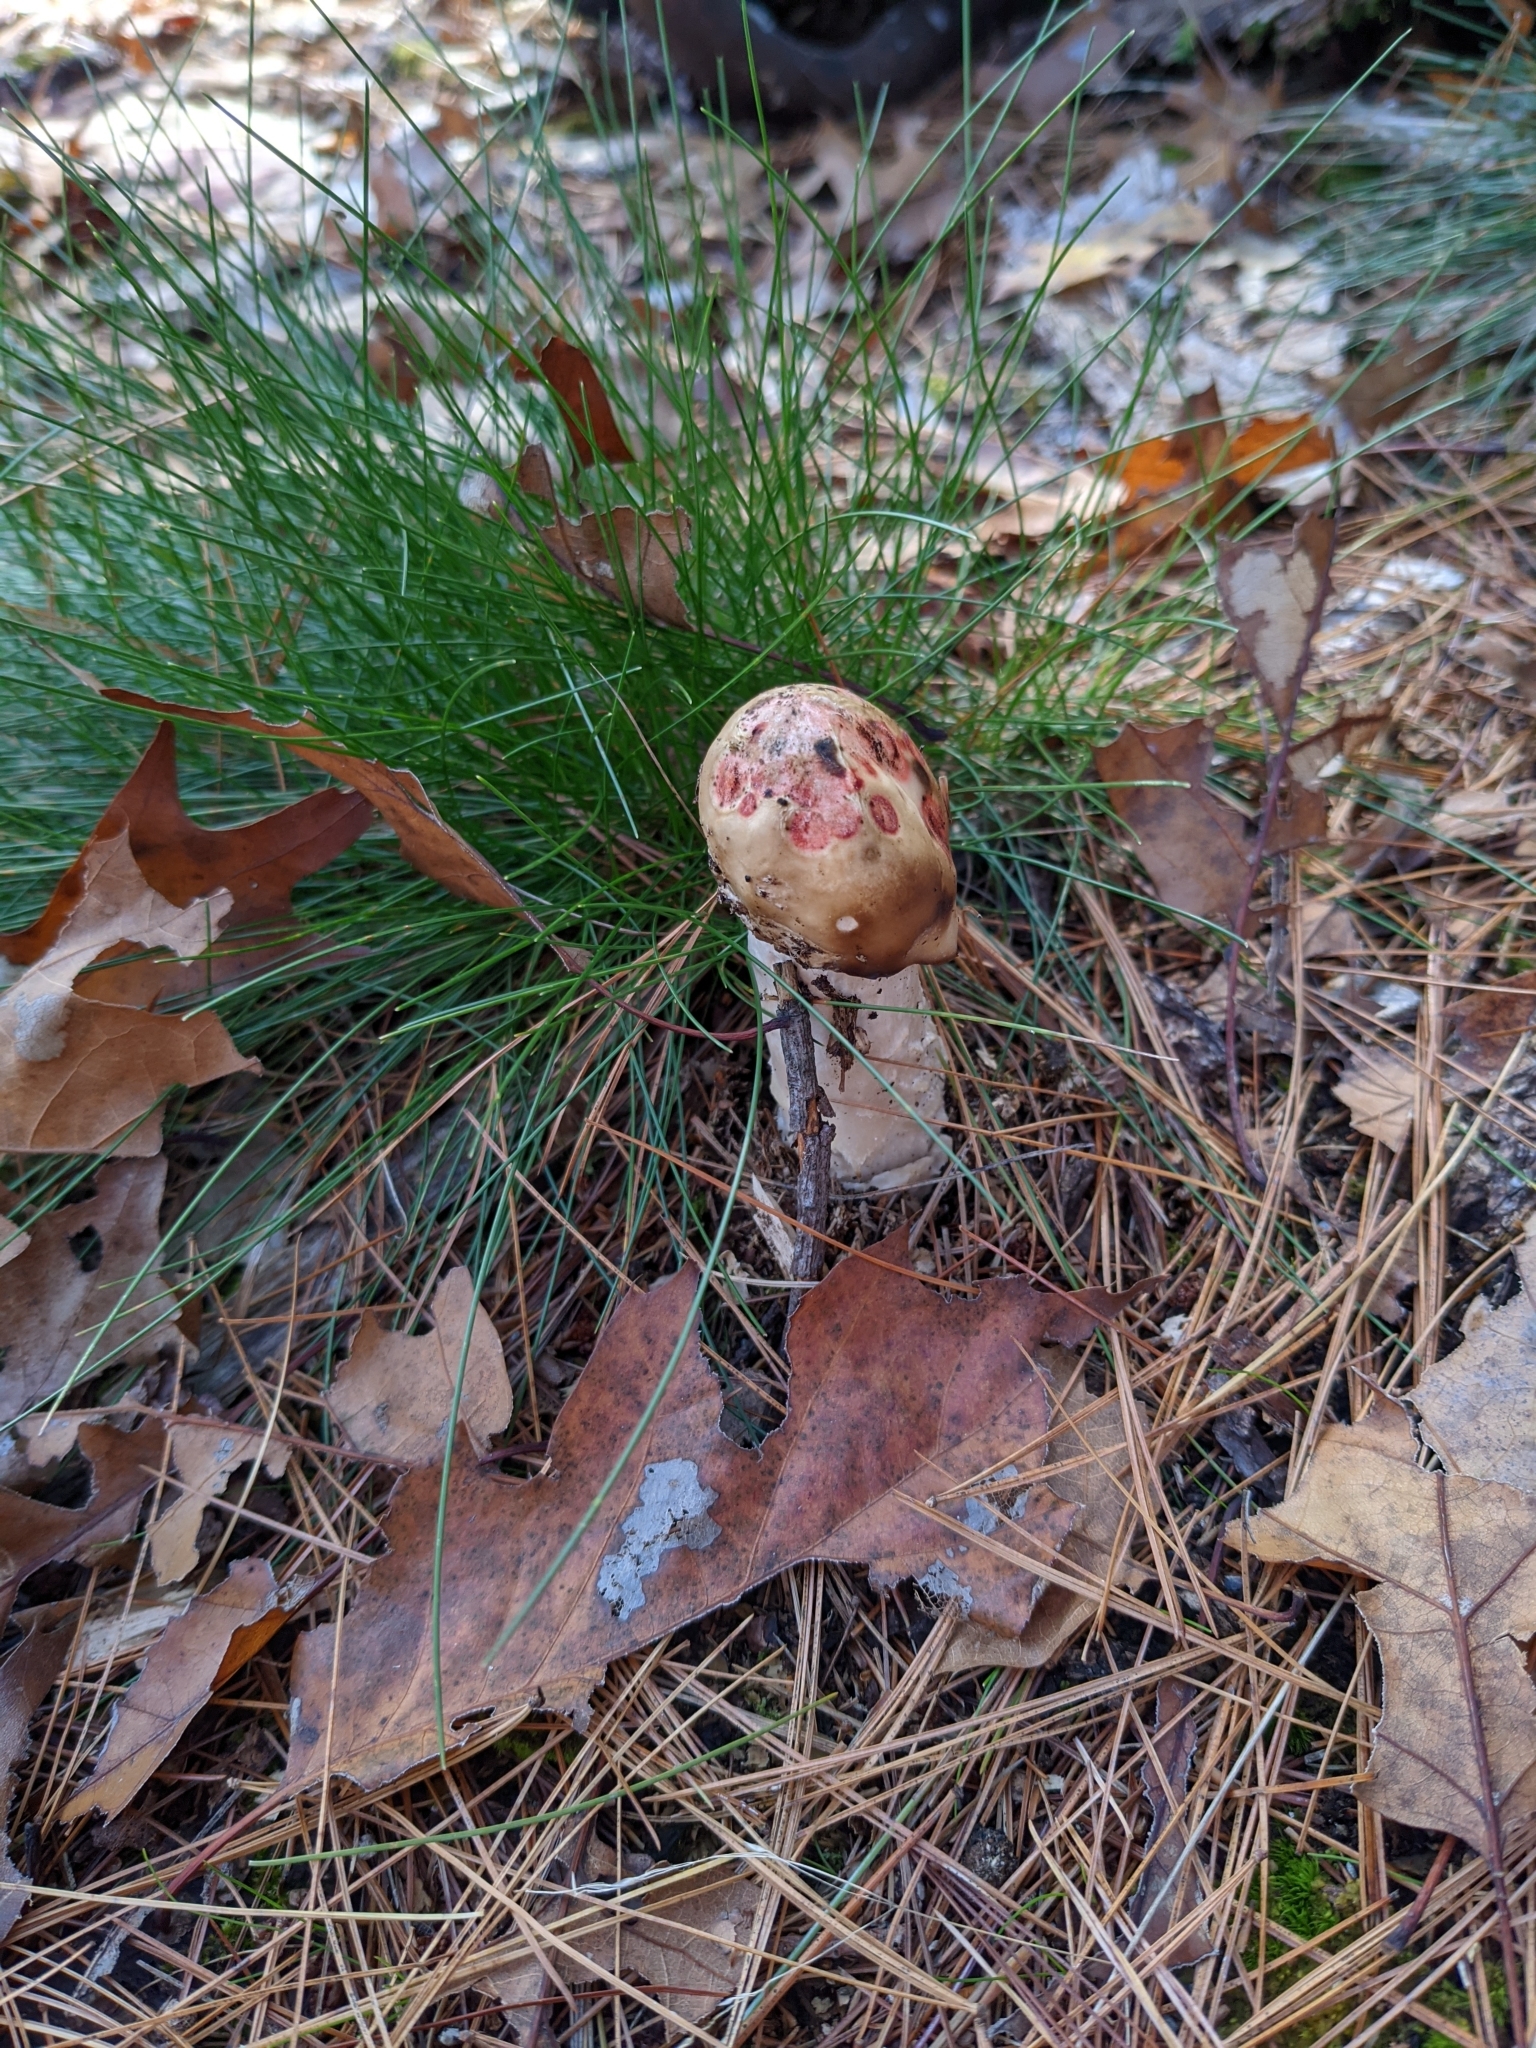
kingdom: Fungi
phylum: Basidiomycota
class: Agaricomycetes
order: Agaricales
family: Amanitaceae
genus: Amanita
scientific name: Amanita muscaria
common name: Fly agaric
